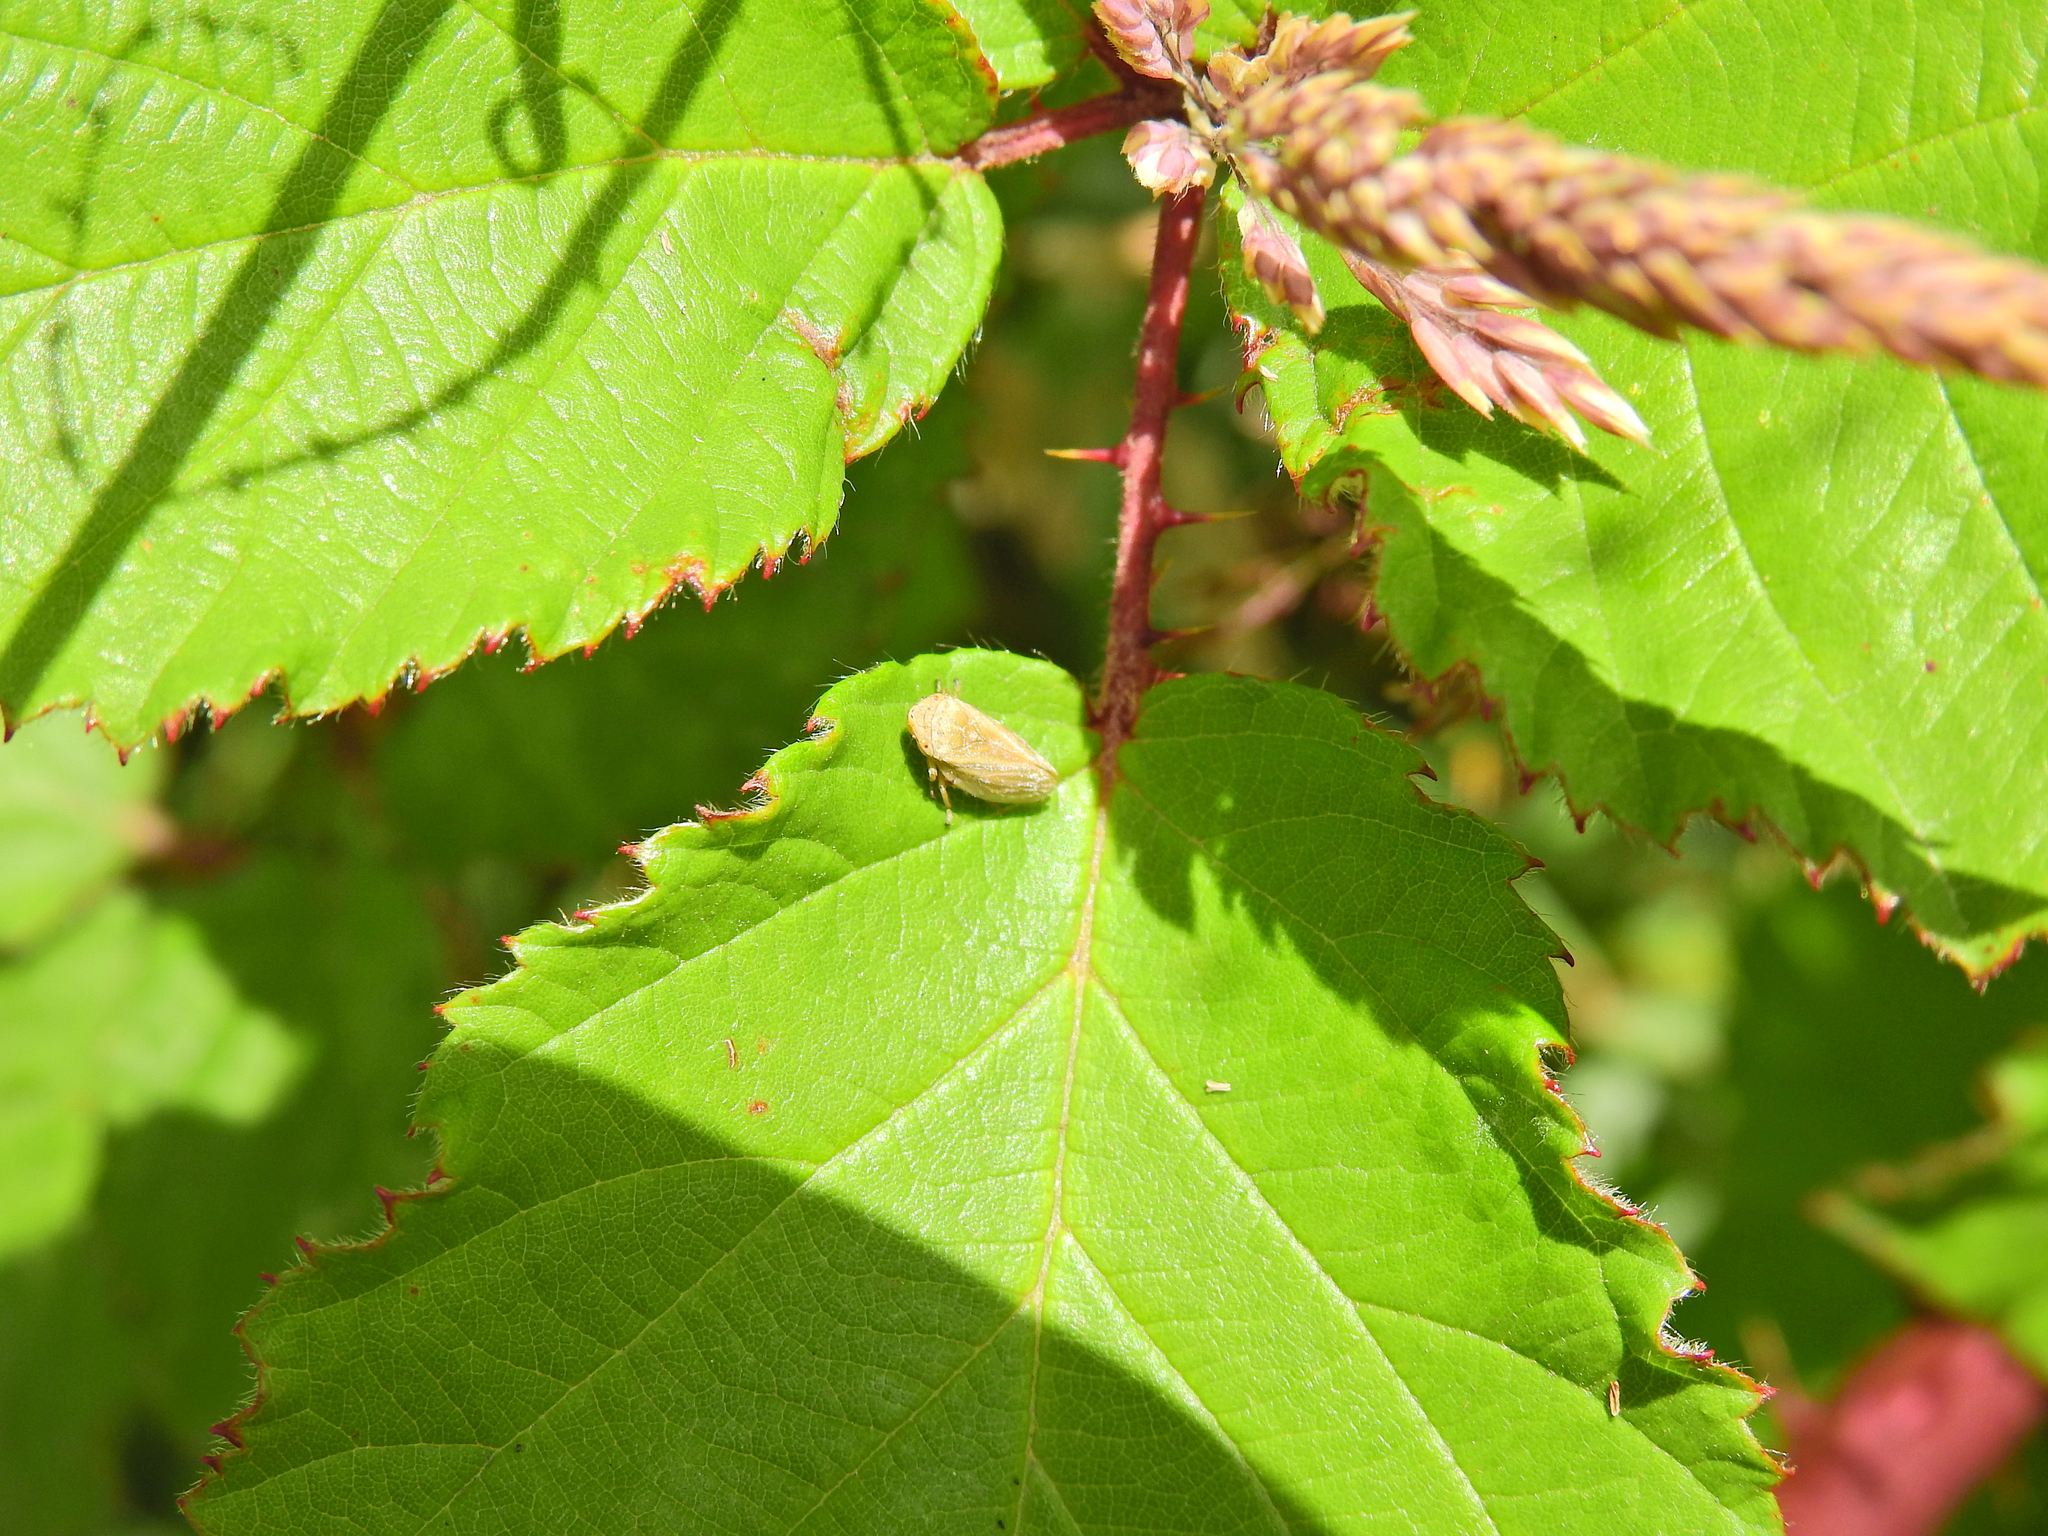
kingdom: Animalia
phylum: Arthropoda
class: Insecta
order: Hemiptera
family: Aphrophoridae
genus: Philaenus
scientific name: Philaenus spumarius
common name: Meadow spittlebug
